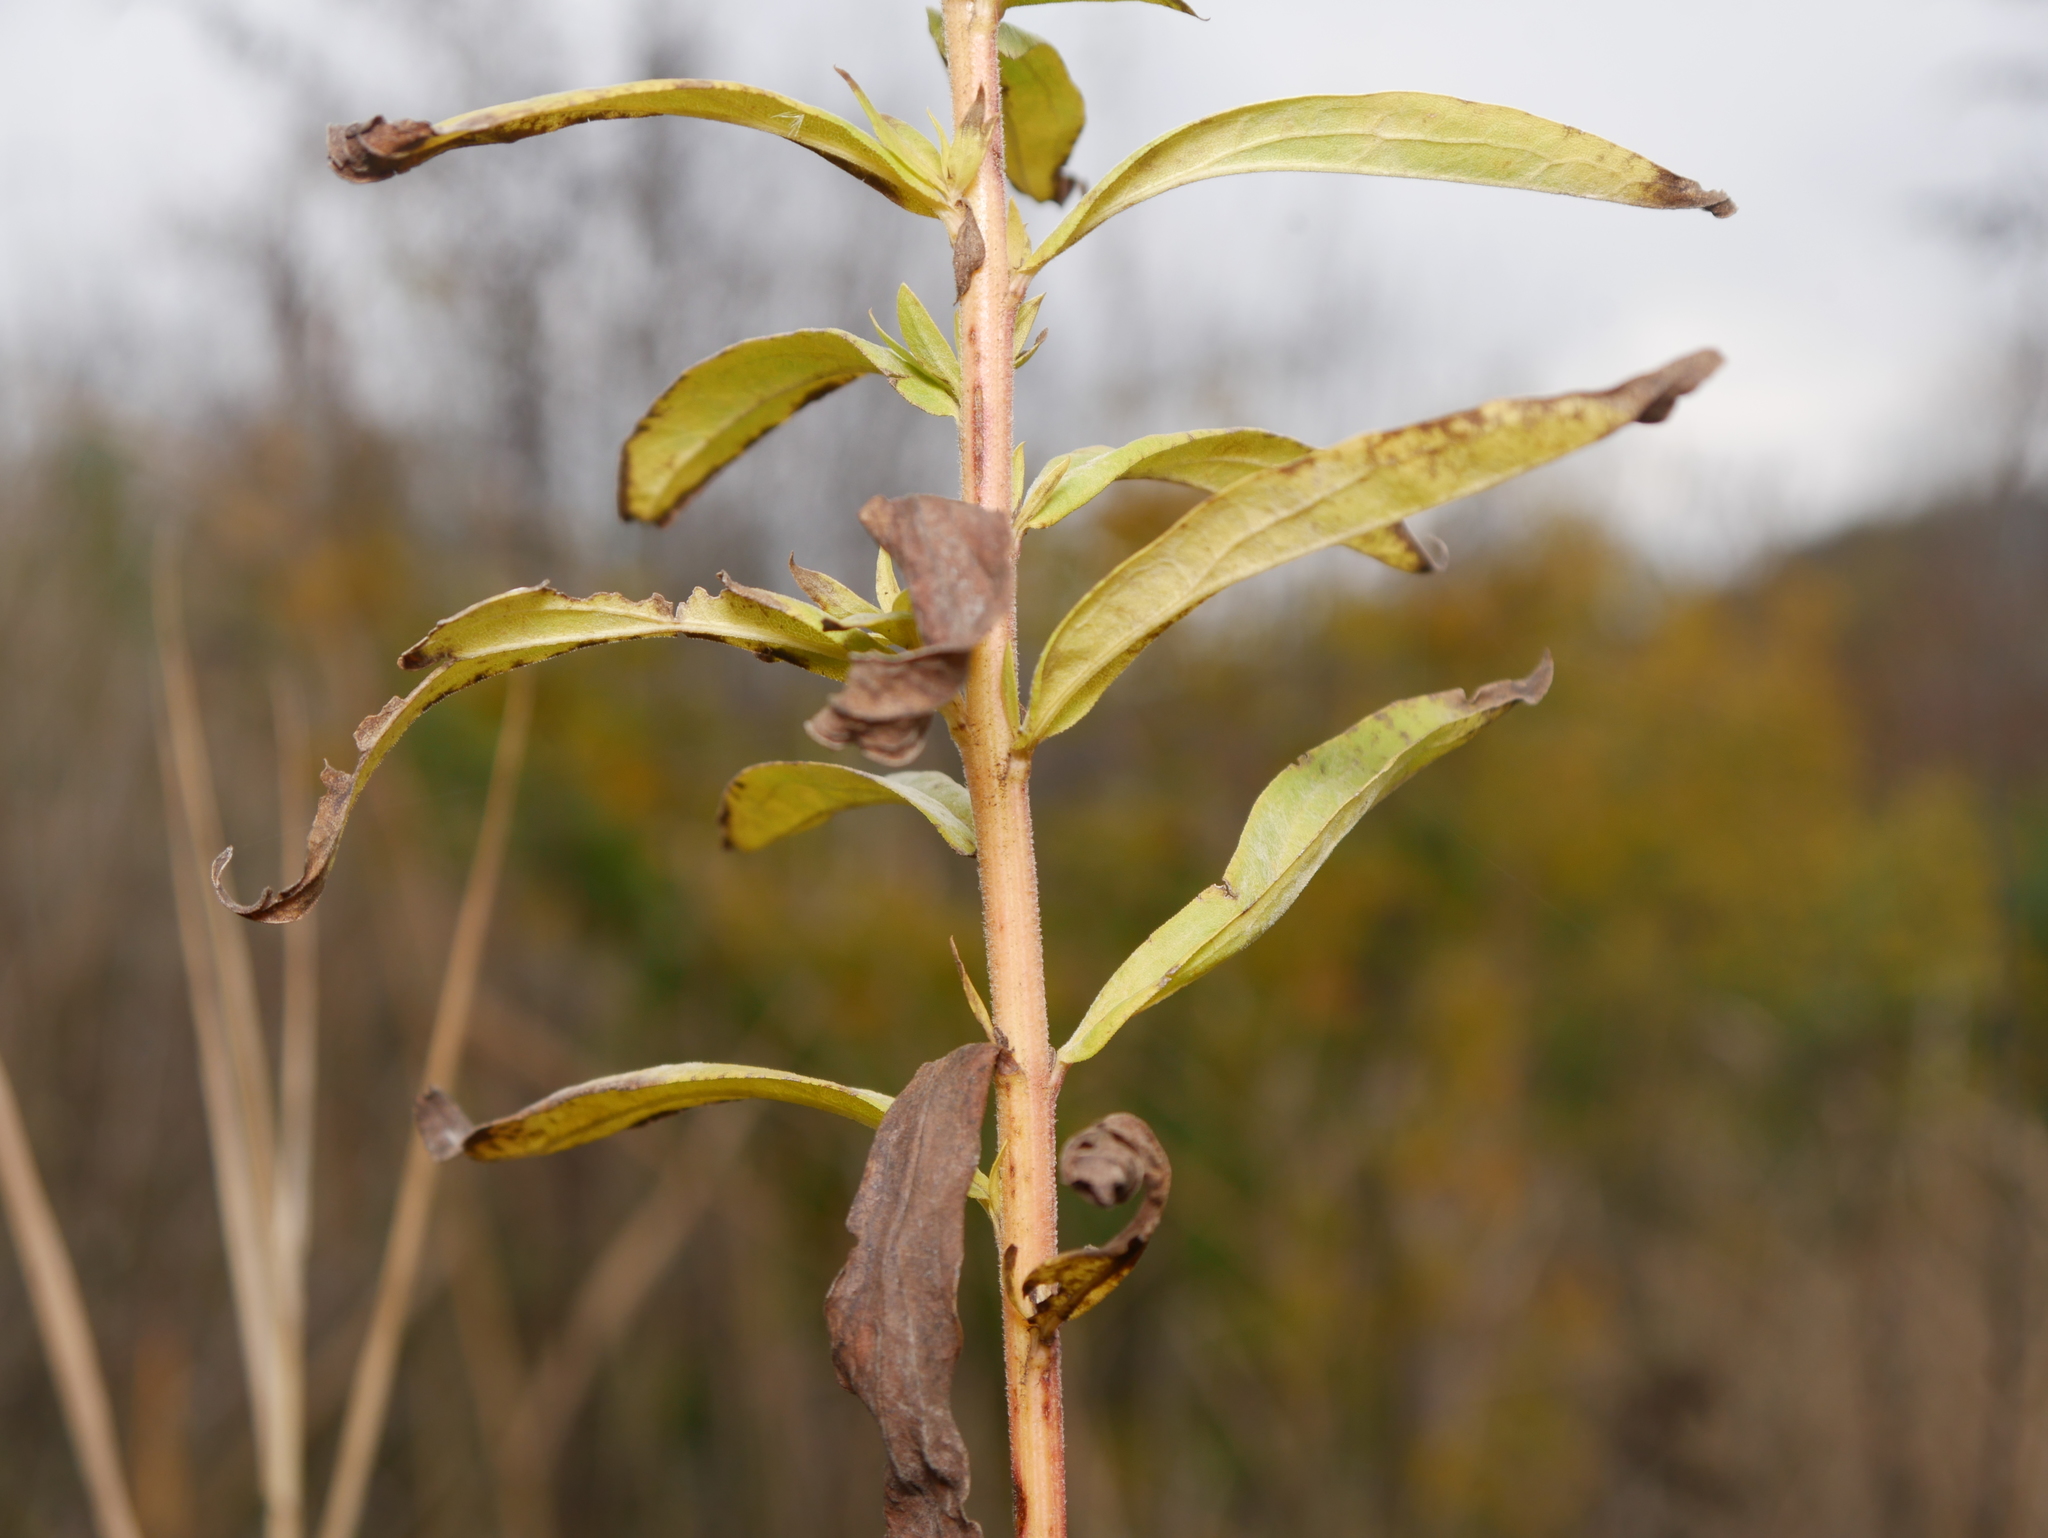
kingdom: Plantae
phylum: Tracheophyta
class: Magnoliopsida
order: Asterales
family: Asteraceae
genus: Artemisia
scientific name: Artemisia vulgaris
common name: Mugwort
